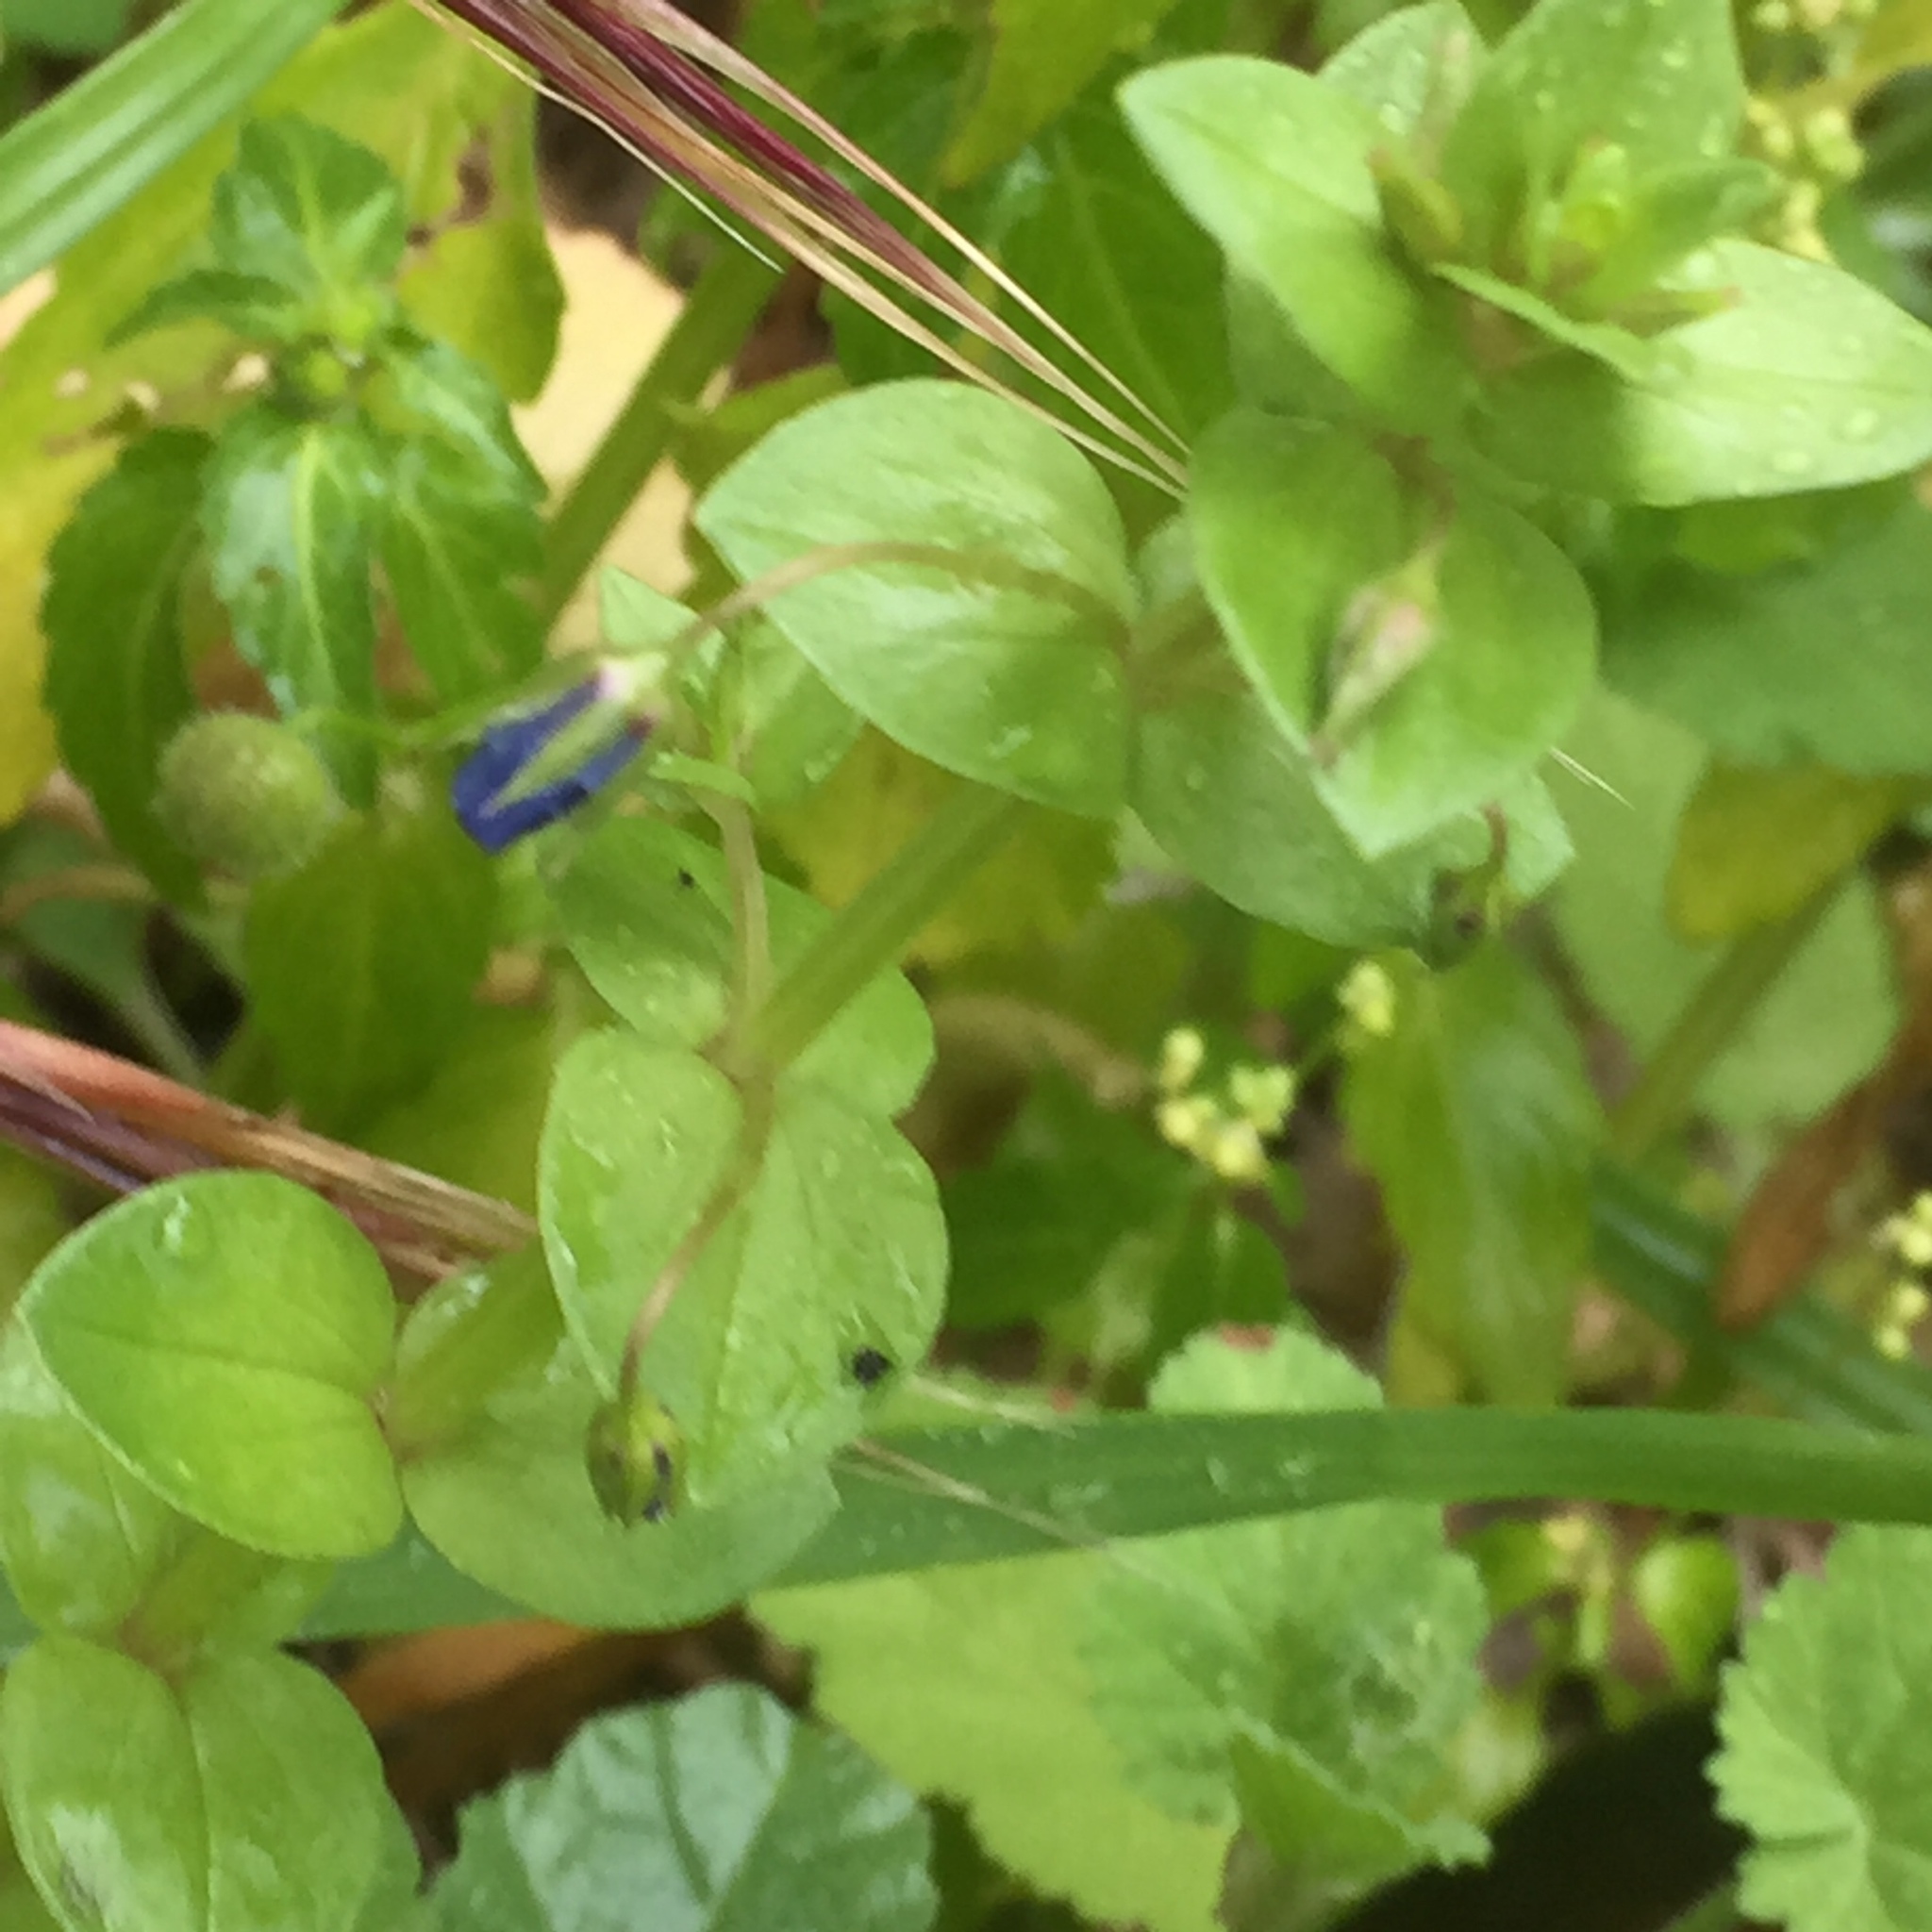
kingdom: Plantae
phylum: Tracheophyta
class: Magnoliopsida
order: Ericales
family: Primulaceae
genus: Lysimachia
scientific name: Lysimachia arvensis
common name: Scarlet pimpernel
